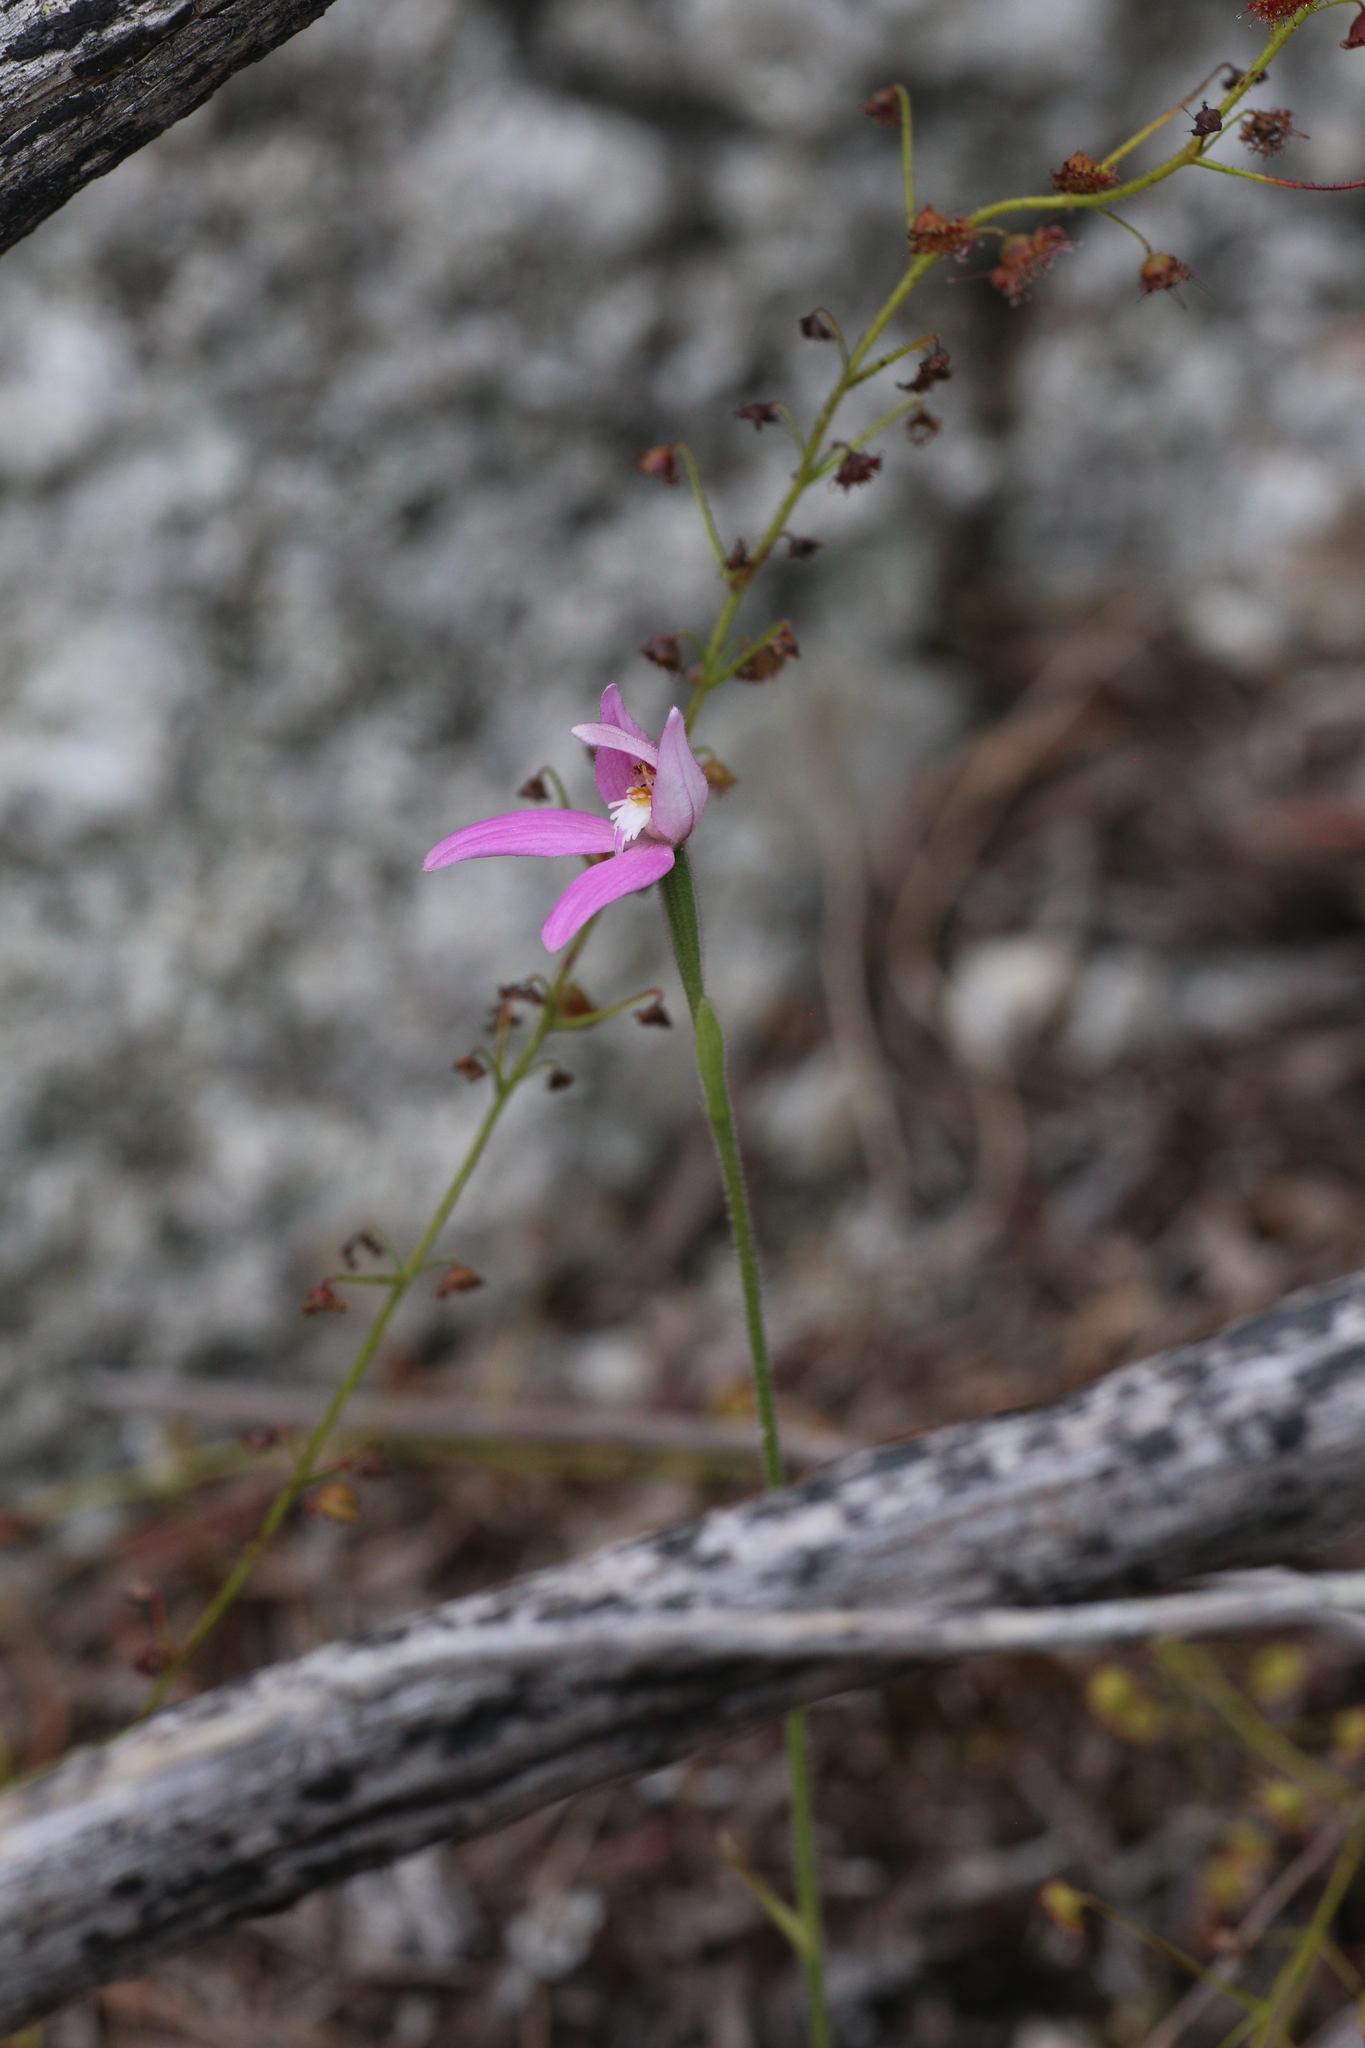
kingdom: Plantae
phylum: Tracheophyta
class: Liliopsida
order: Asparagales
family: Orchidaceae
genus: Caladenia
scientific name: Caladenia latifolia
